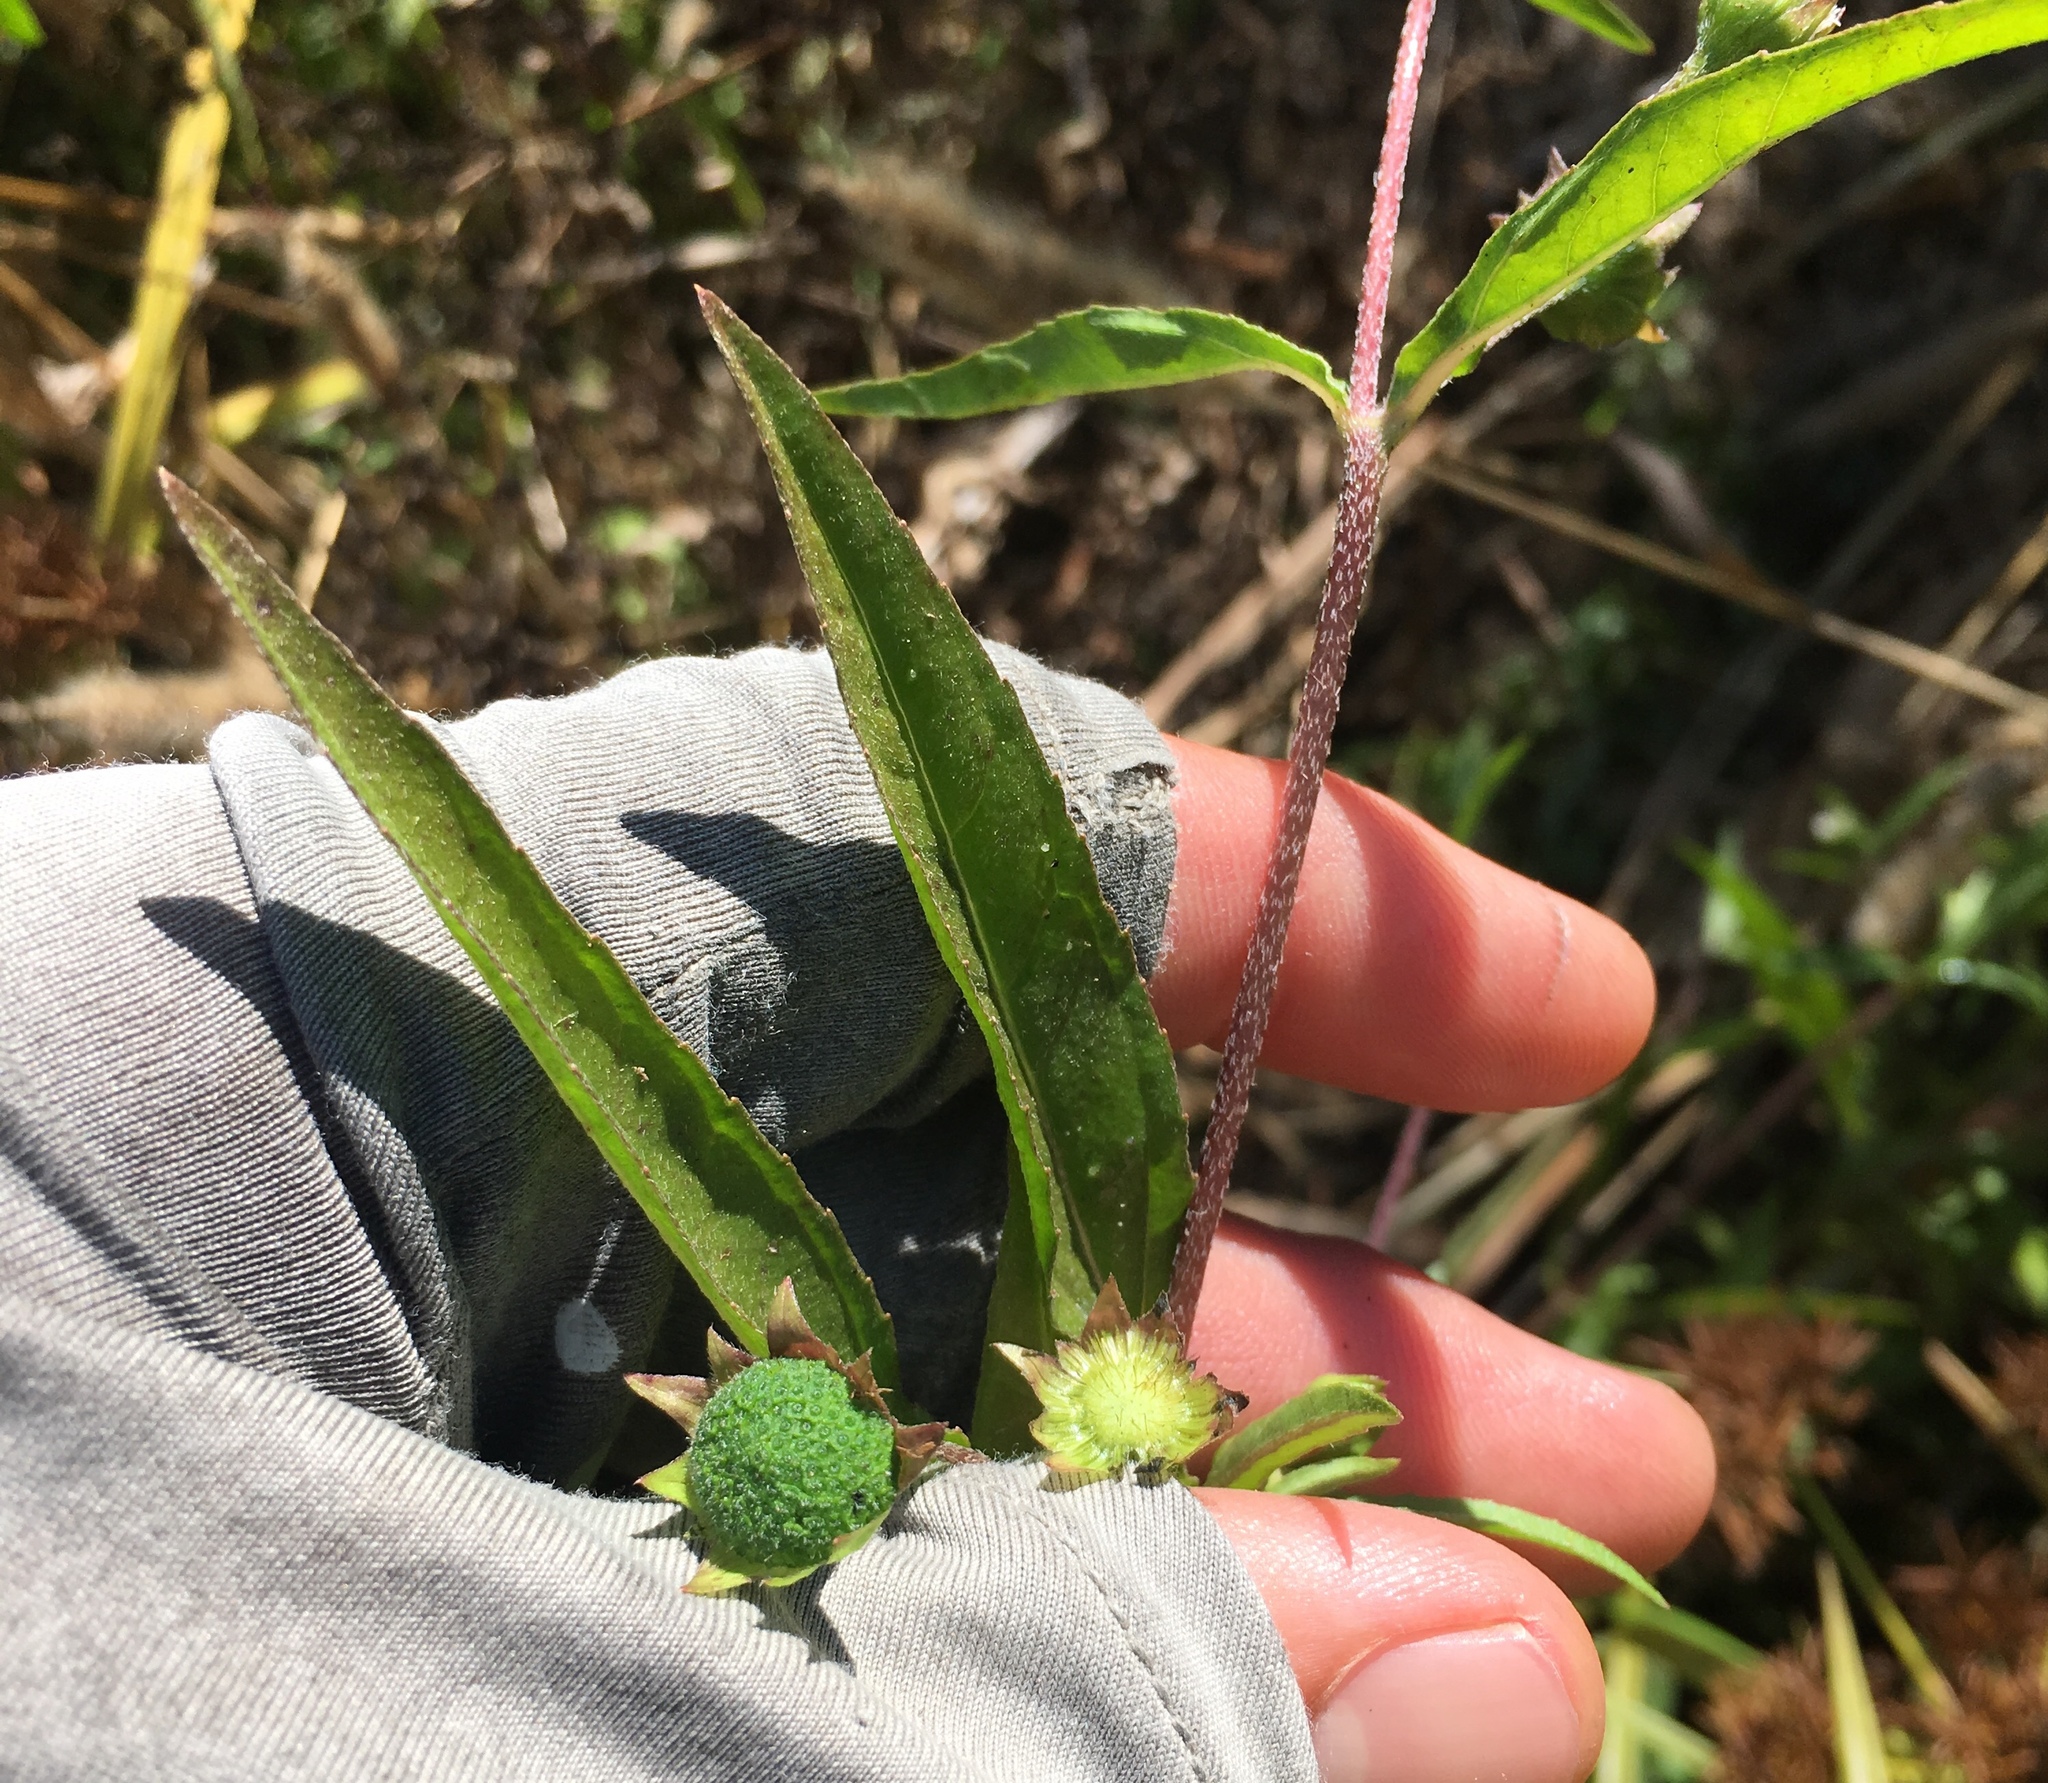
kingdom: Plantae
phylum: Tracheophyta
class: Magnoliopsida
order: Asterales
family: Asteraceae
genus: Eclipta
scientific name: Eclipta prostrata
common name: False daisy
